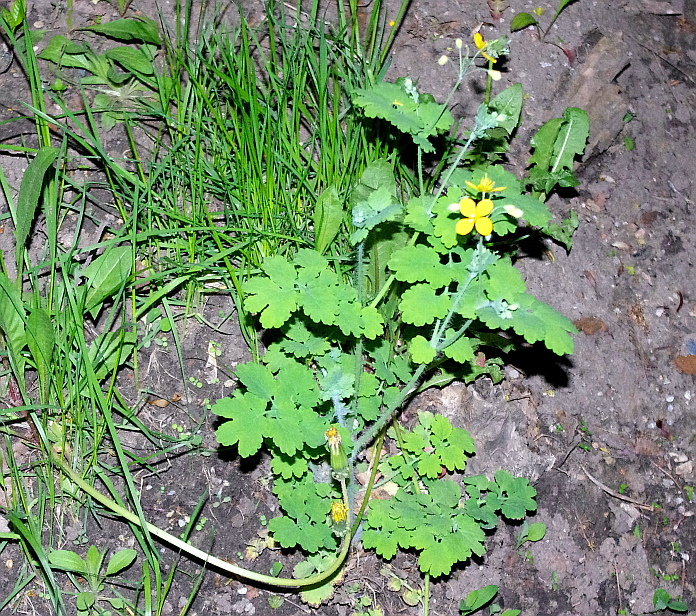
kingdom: Plantae
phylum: Tracheophyta
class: Magnoliopsida
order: Ranunculales
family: Papaveraceae
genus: Chelidonium
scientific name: Chelidonium majus
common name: Greater celandine
